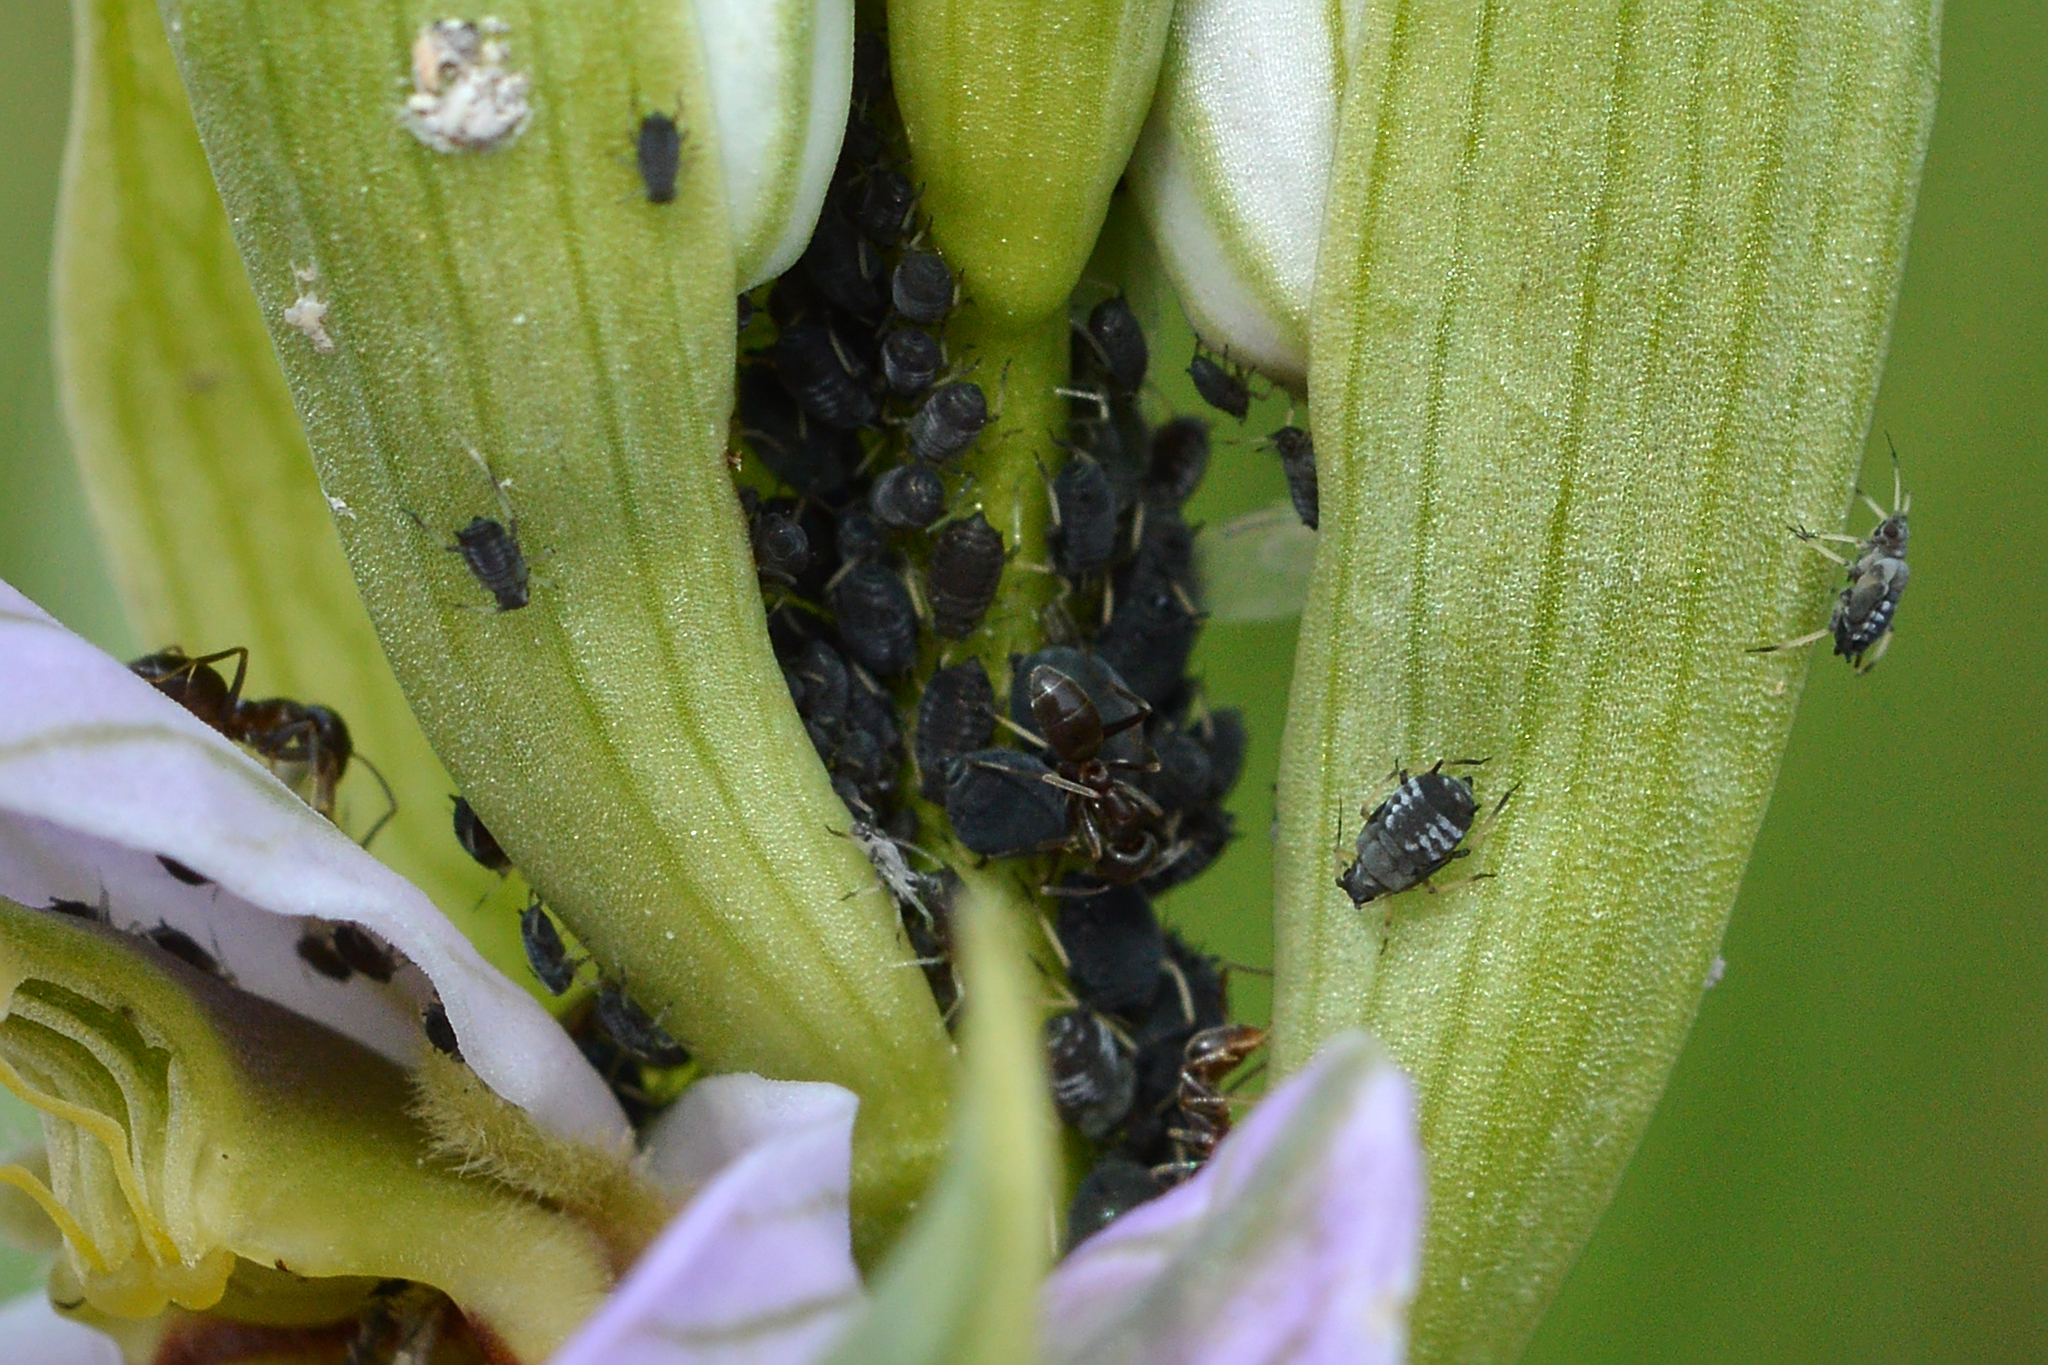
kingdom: Animalia
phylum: Arthropoda
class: Insecta
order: Hymenoptera
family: Formicidae
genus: Linepithema
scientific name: Linepithema humile
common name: Argentine ant
